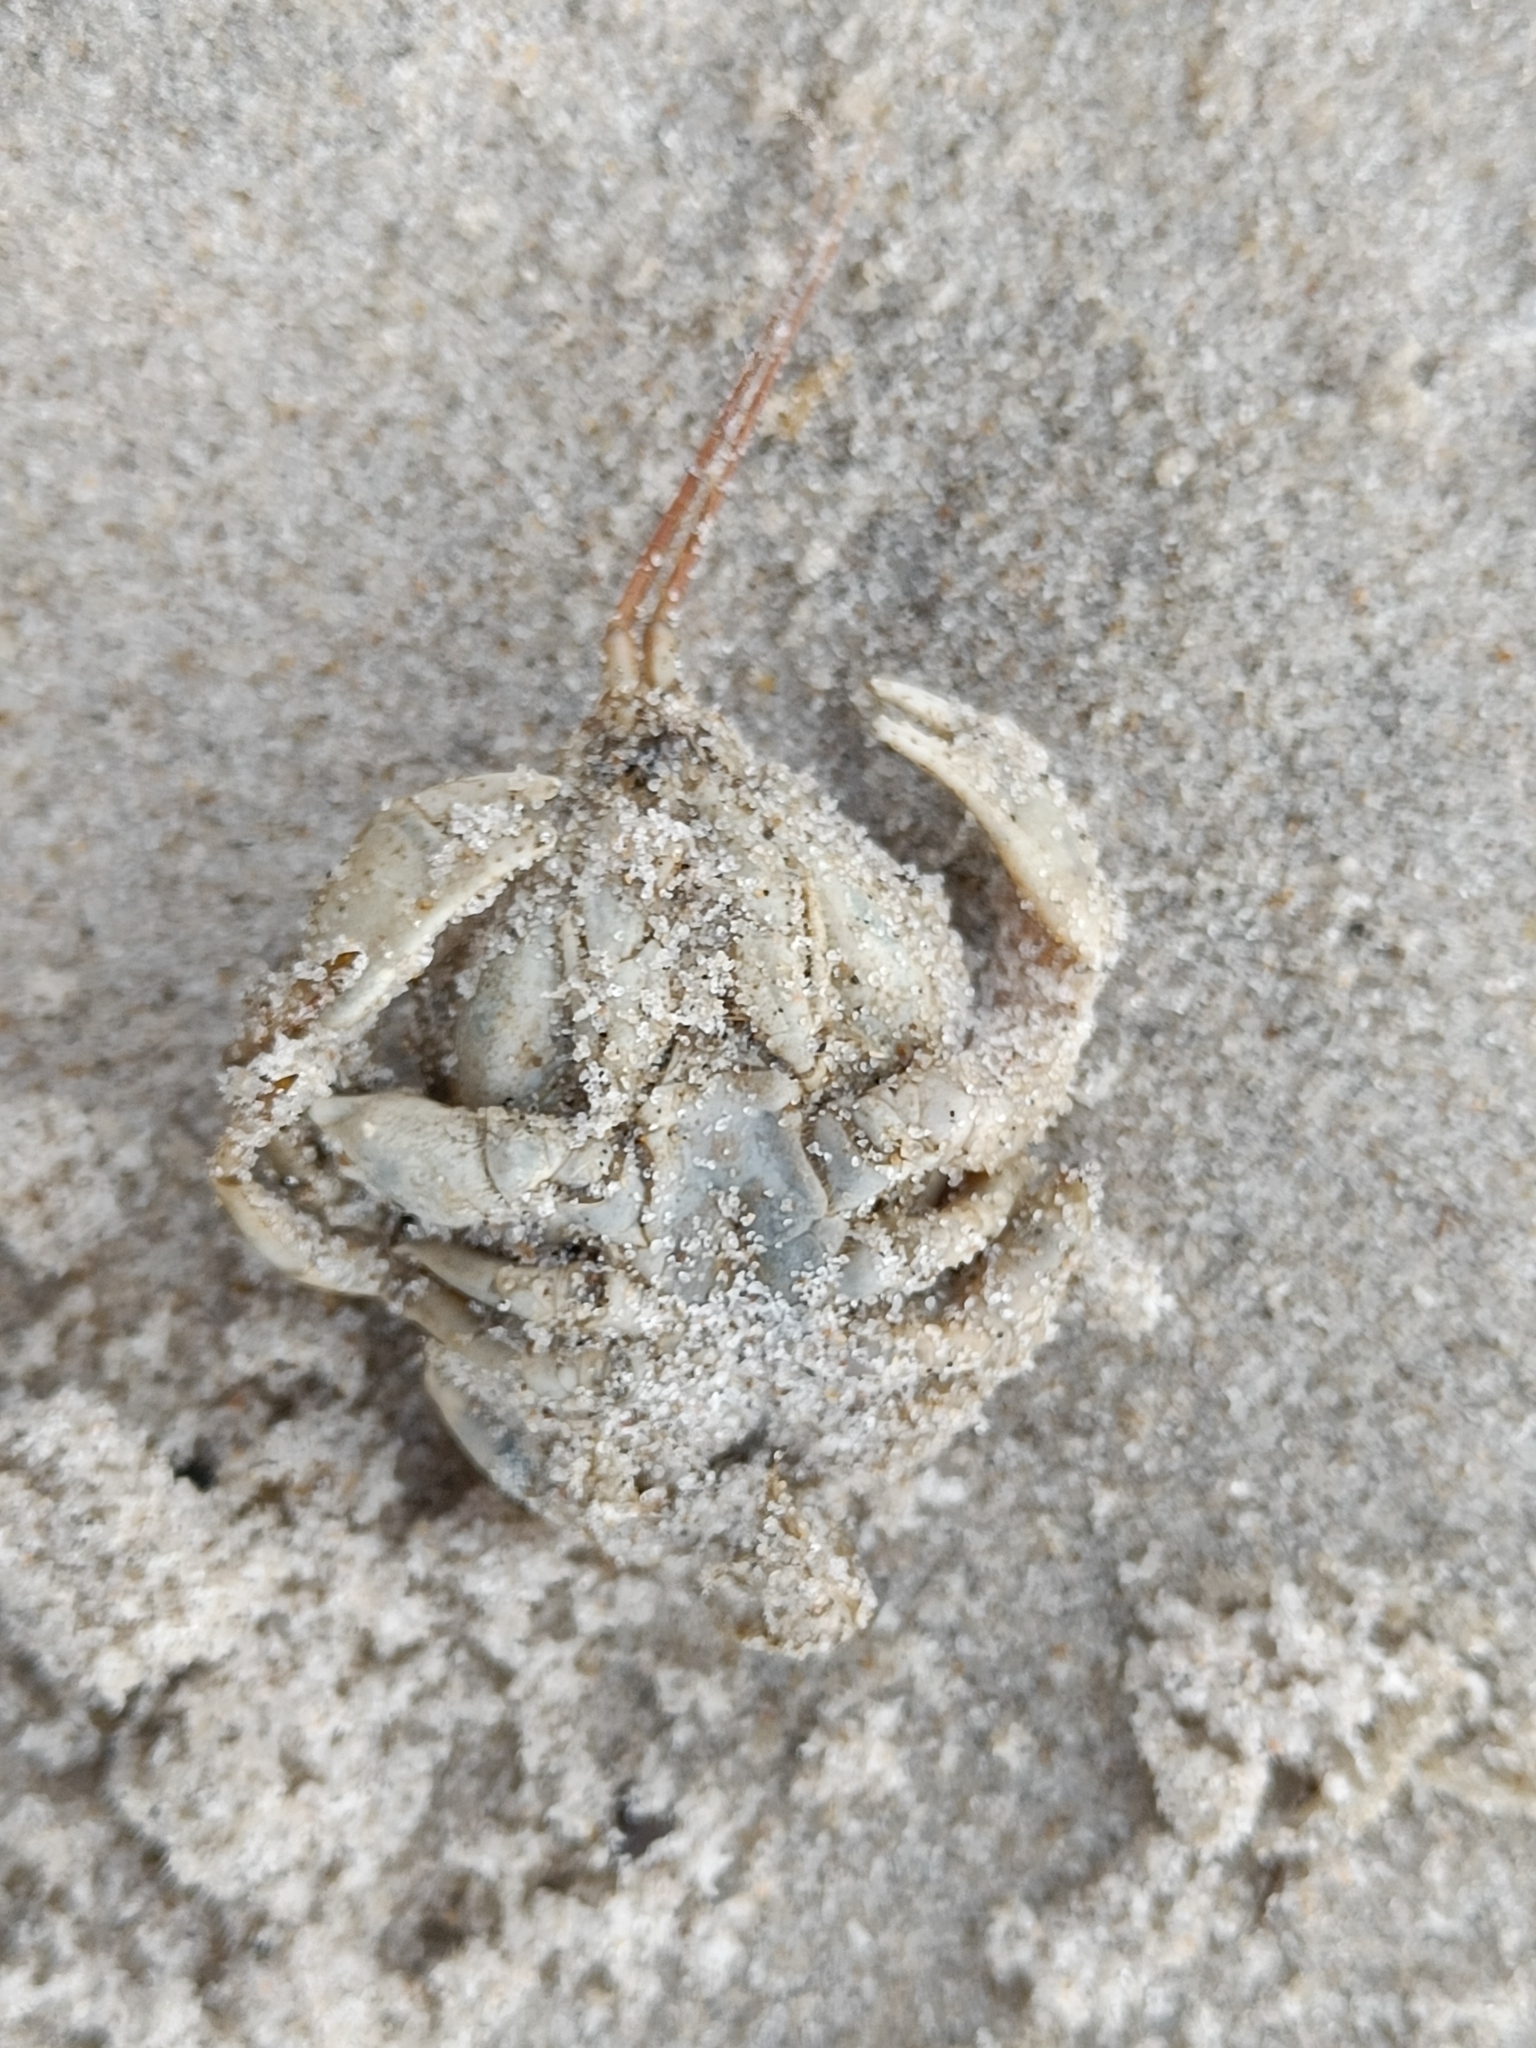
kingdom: Animalia
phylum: Arthropoda
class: Malacostraca
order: Decapoda
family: Corystidae
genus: Corystes
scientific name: Corystes cassivelaunus
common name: Masked crab
